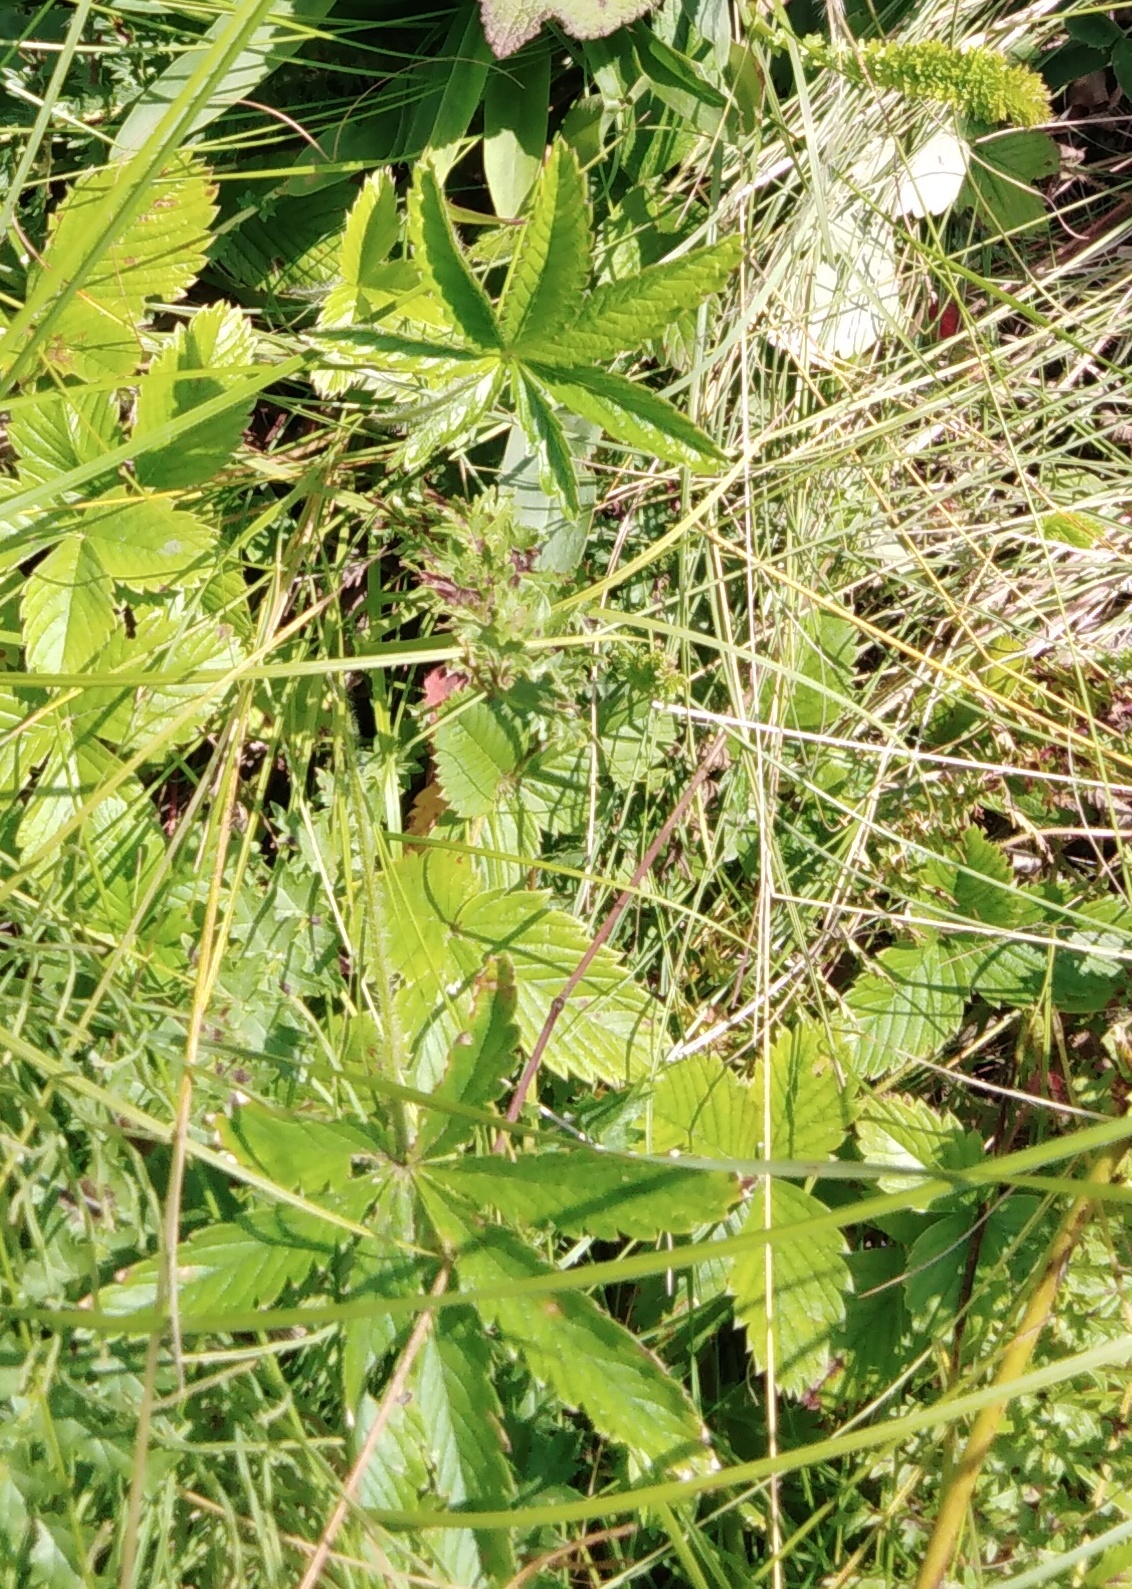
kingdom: Plantae
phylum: Tracheophyta
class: Magnoliopsida
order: Rosales
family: Rosaceae
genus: Potentilla
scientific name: Potentilla thuringiaca
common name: European cinquefoil
